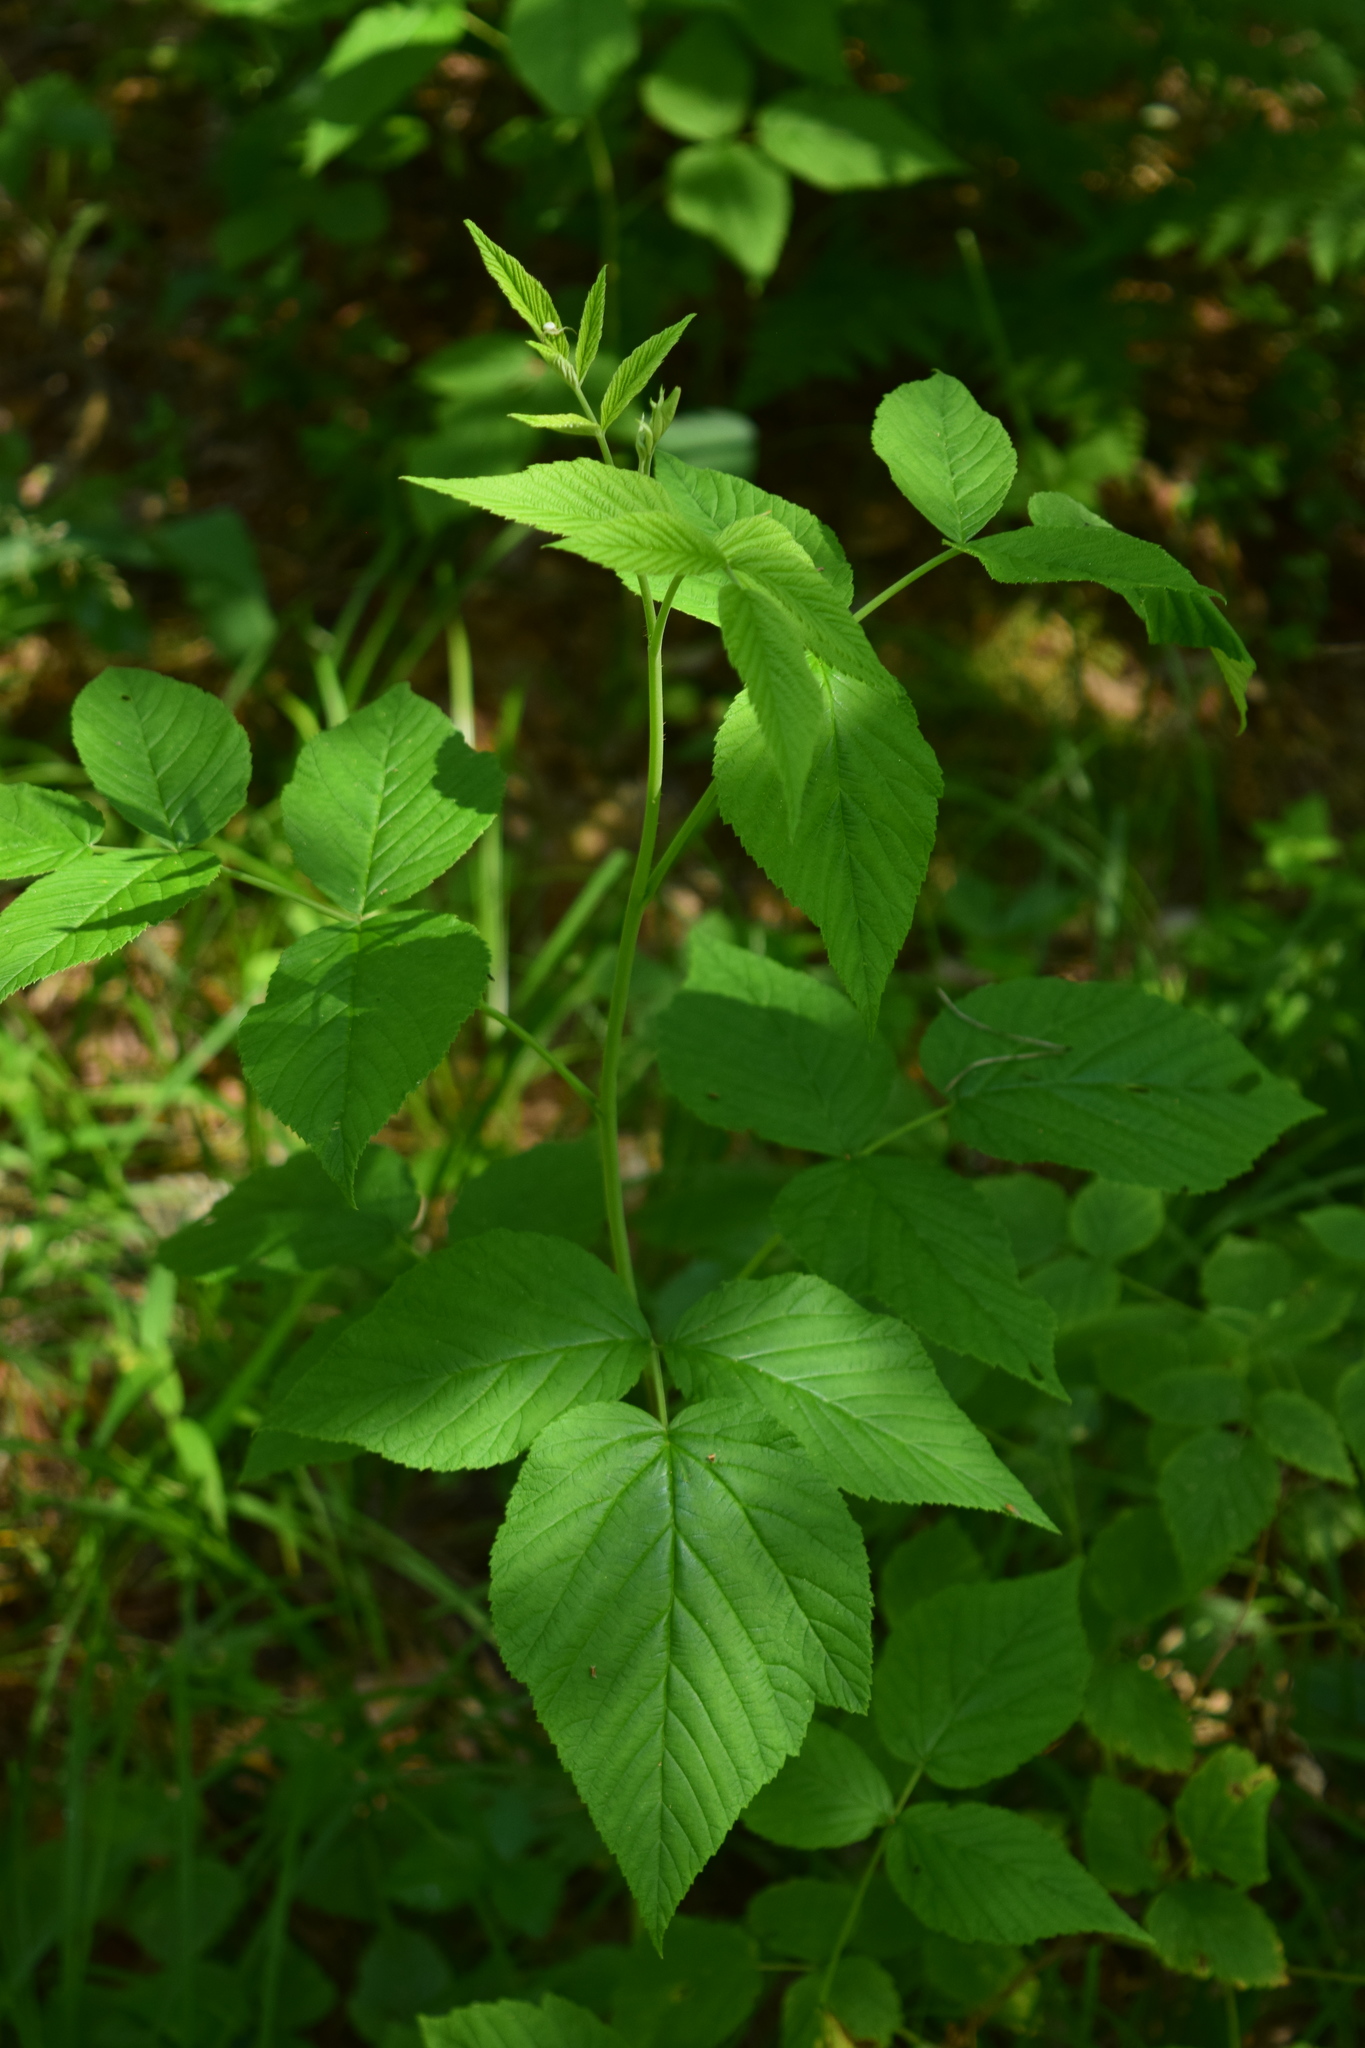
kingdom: Plantae
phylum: Tracheophyta
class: Magnoliopsida
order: Rosales
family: Rosaceae
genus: Rubus
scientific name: Rubus idaeus
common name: Raspberry
